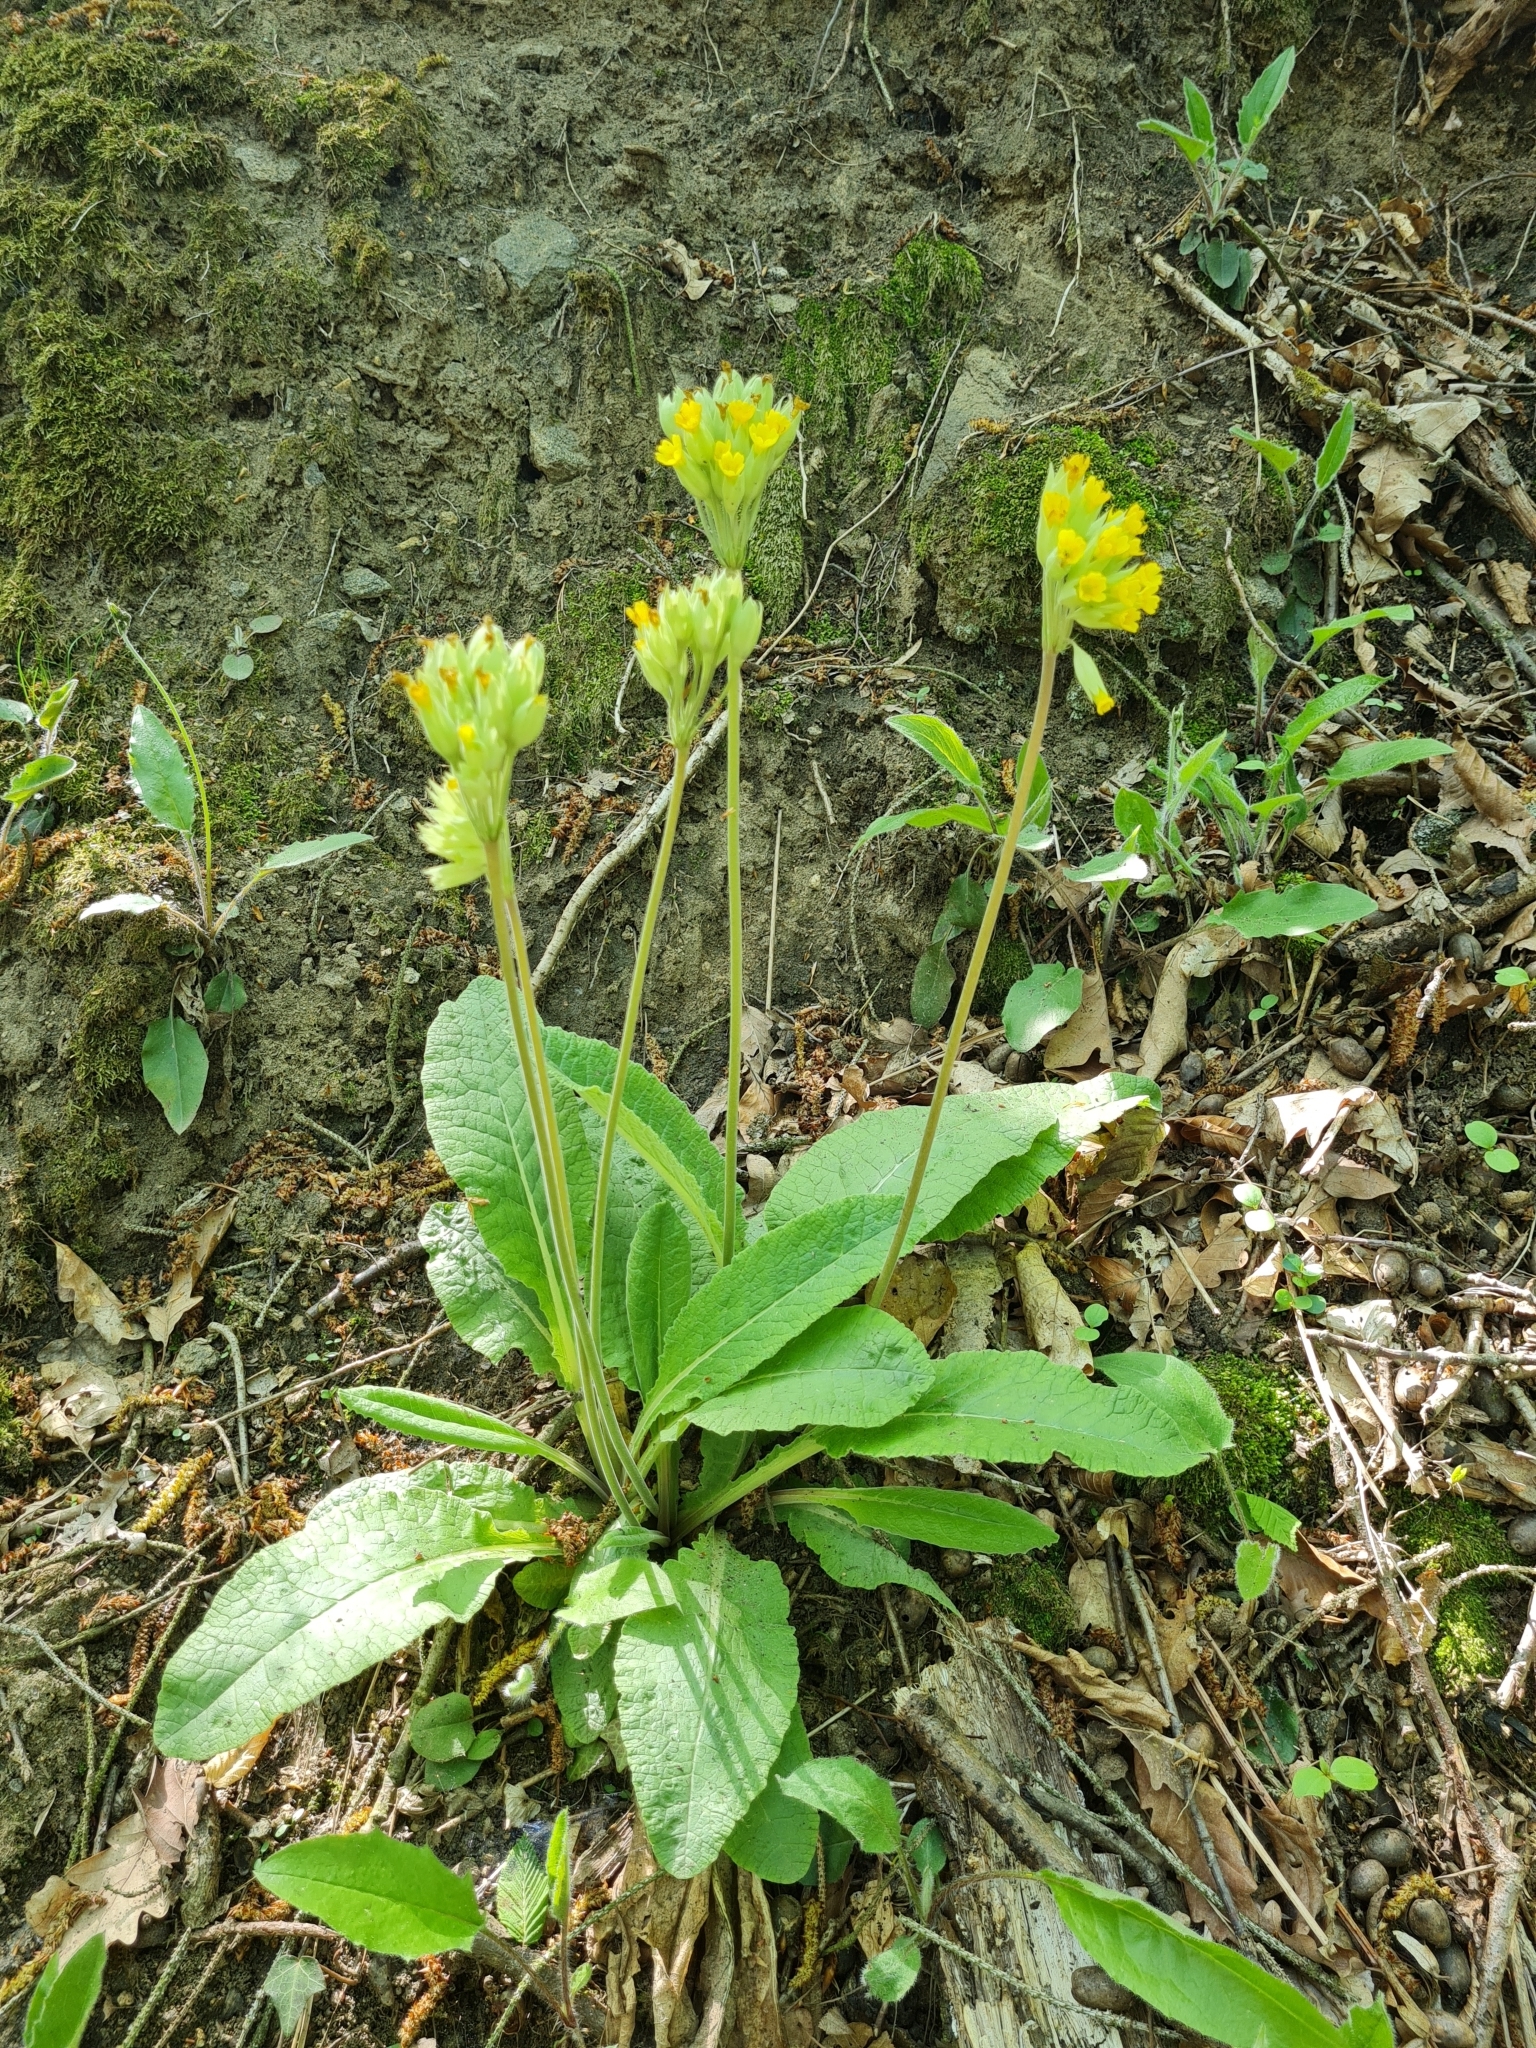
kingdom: Plantae
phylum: Tracheophyta
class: Magnoliopsida
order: Ericales
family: Primulaceae
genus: Primula
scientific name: Primula veris
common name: Cowslip
